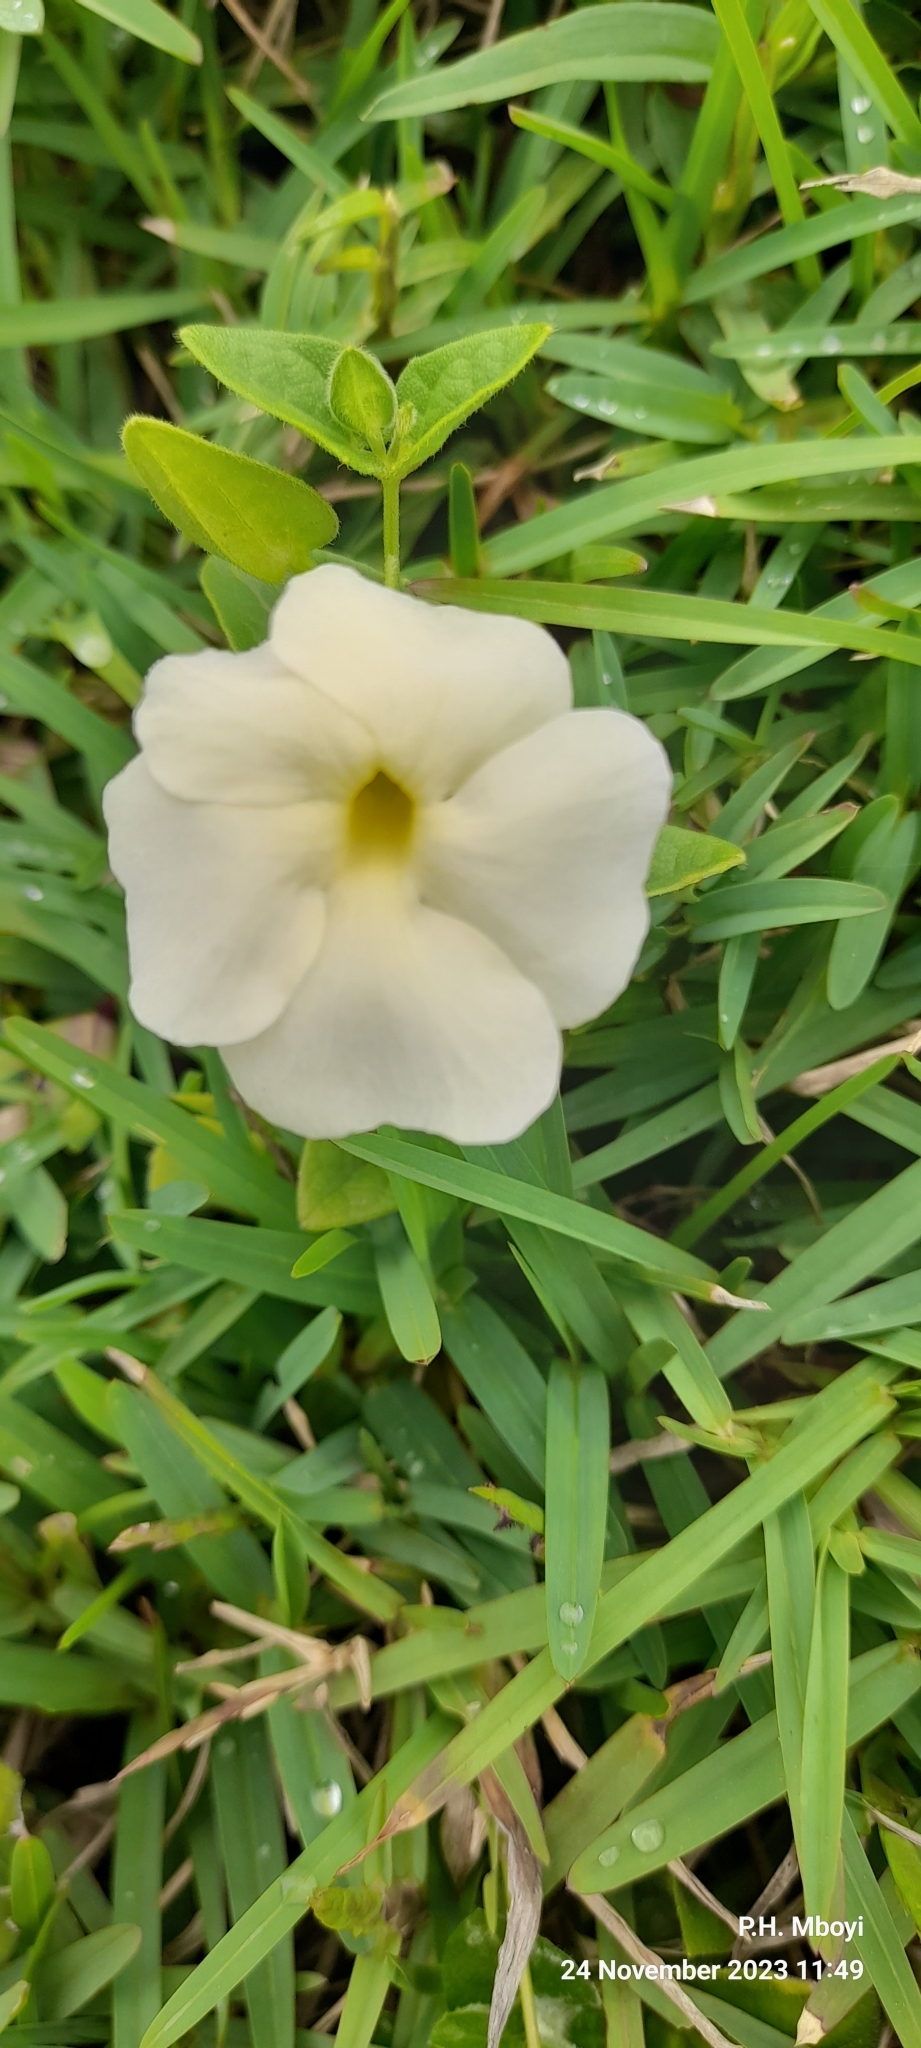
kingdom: Plantae
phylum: Tracheophyta
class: Magnoliopsida
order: Lamiales
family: Acanthaceae
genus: Thunbergia
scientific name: Thunbergia atriplicifolia
